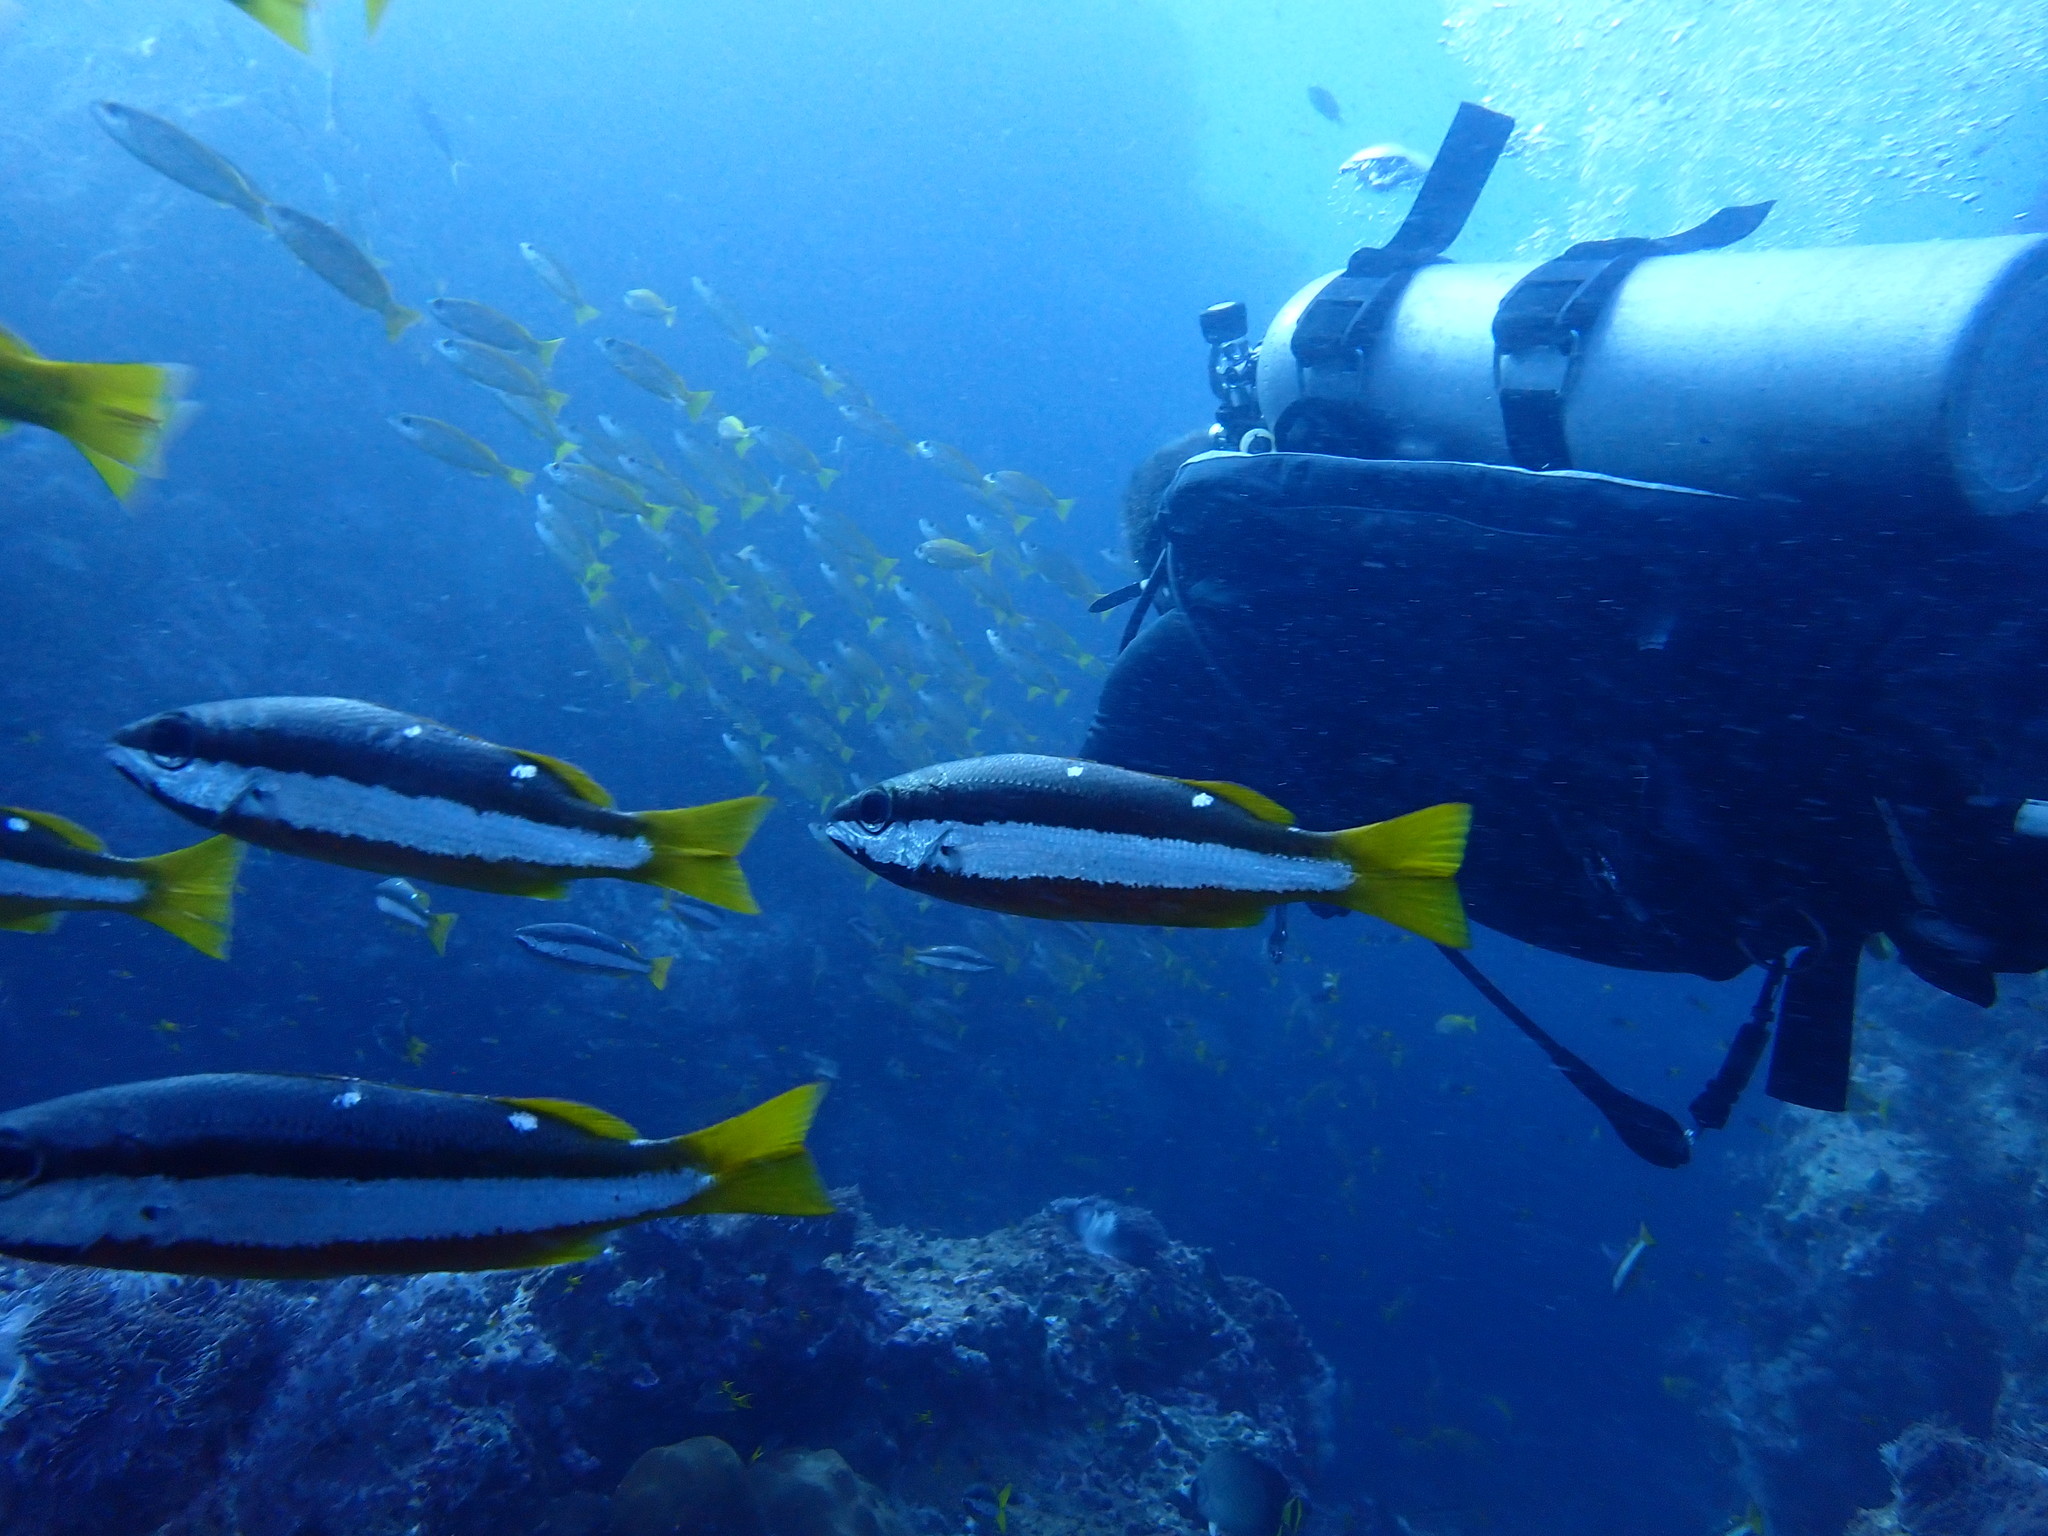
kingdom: Animalia
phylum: Chordata
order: Perciformes
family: Lutjanidae
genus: Lutjanus
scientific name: Lutjanus biguttatus
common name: Two-spot snapper
